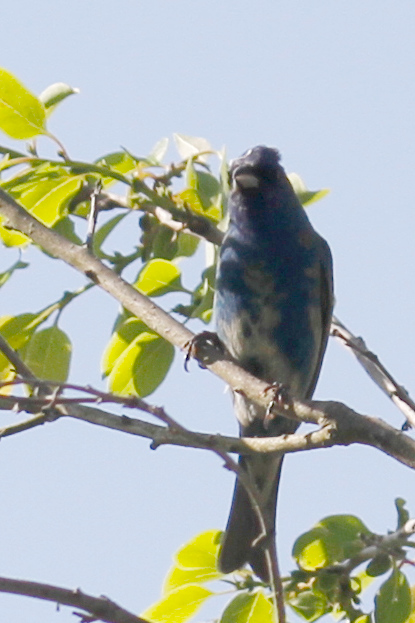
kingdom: Animalia
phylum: Chordata
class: Aves
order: Passeriformes
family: Cardinalidae
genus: Passerina
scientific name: Passerina cyanea
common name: Indigo bunting
